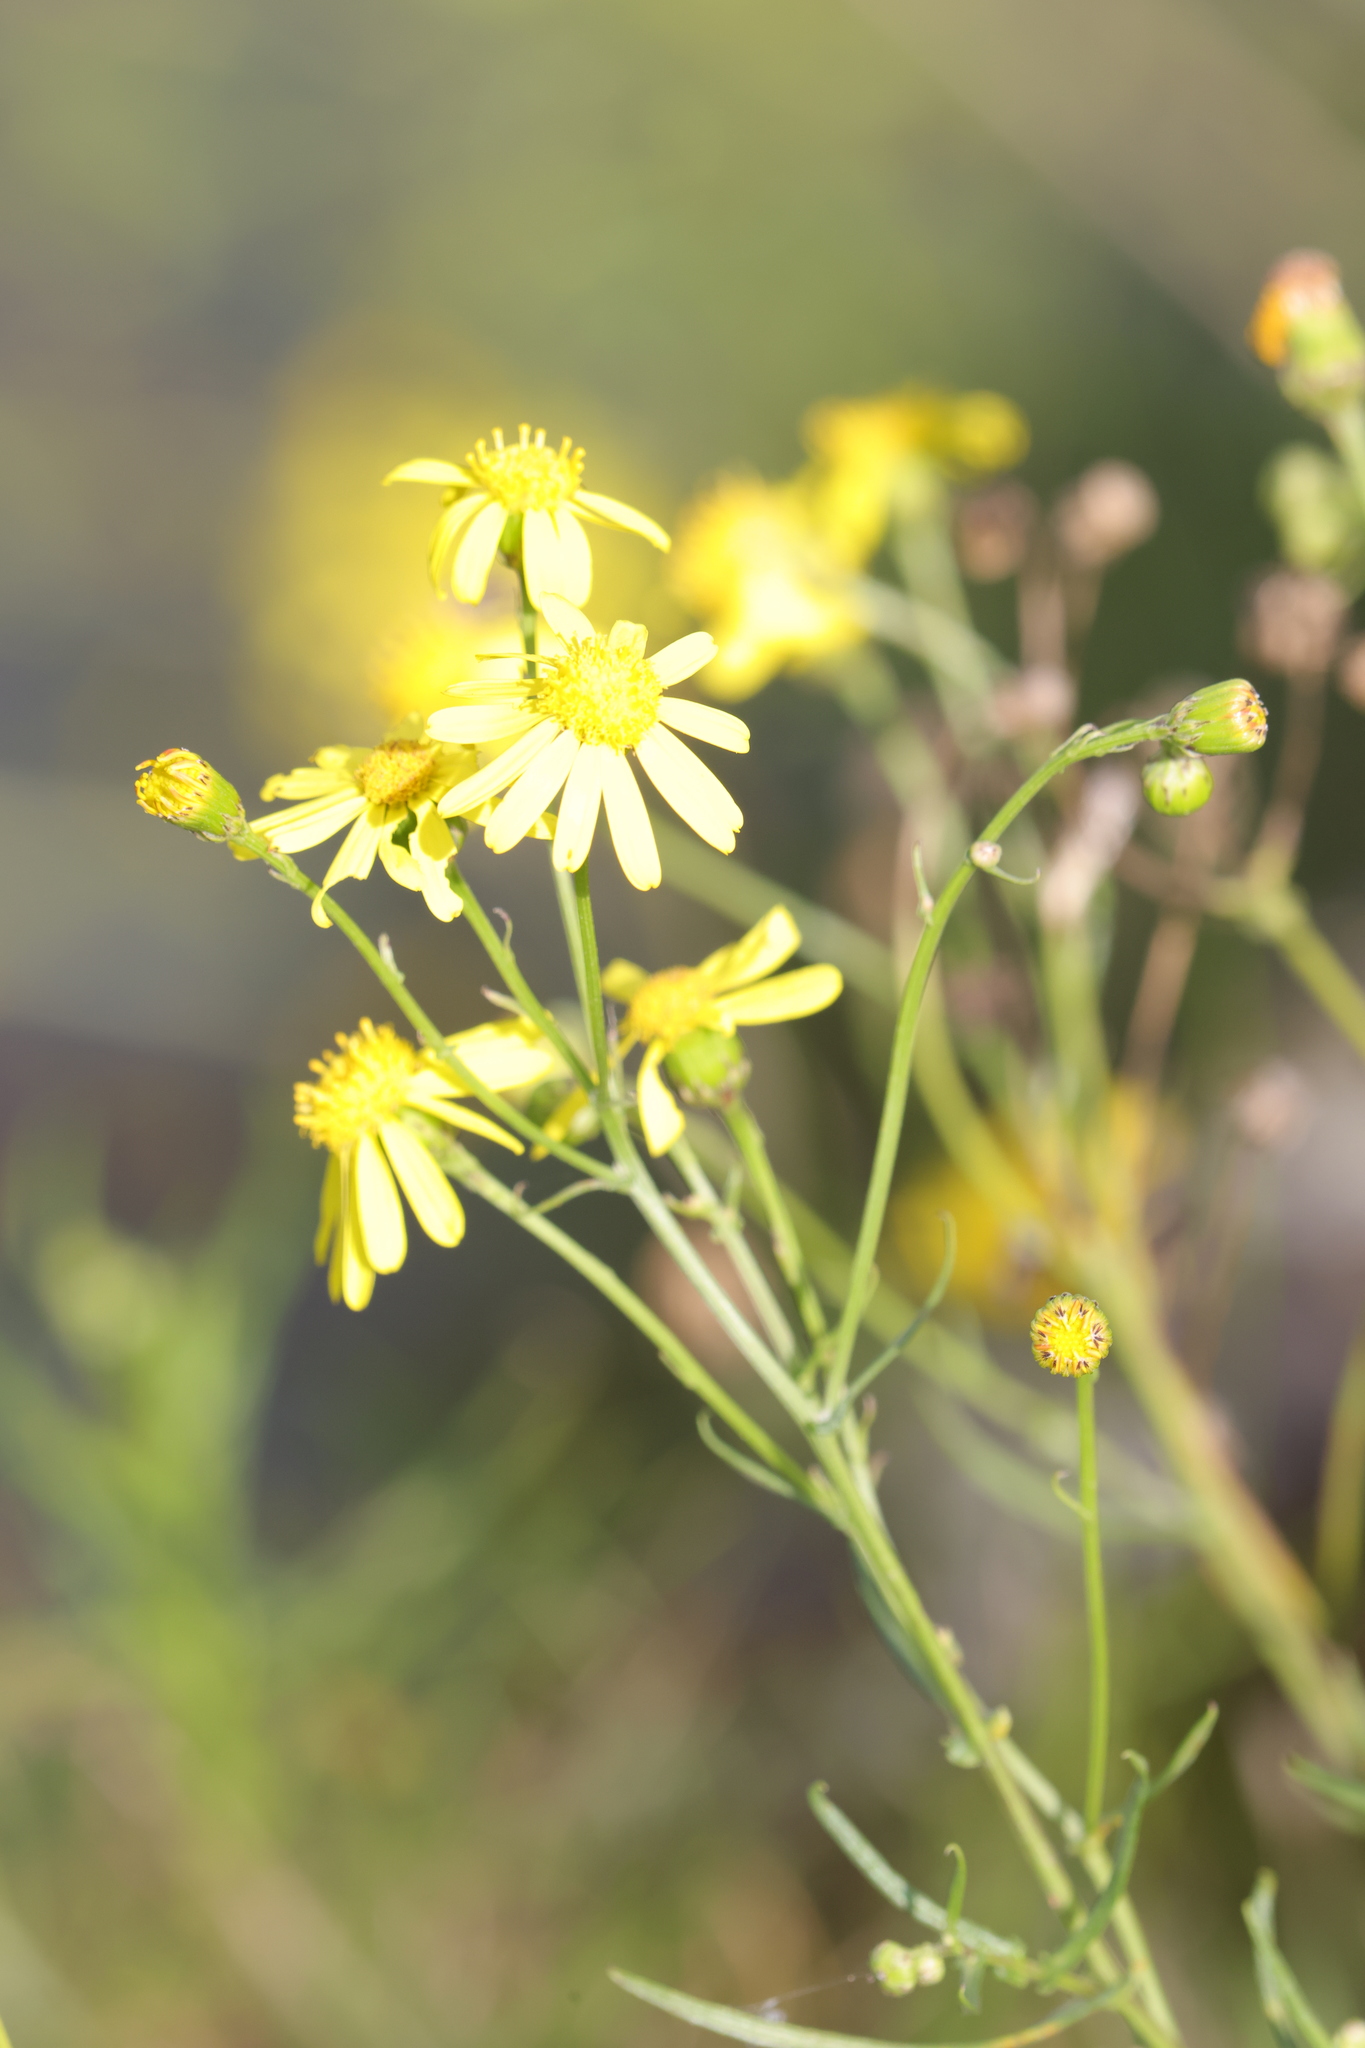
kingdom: Plantae
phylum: Tracheophyta
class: Magnoliopsida
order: Asterales
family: Asteraceae
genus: Senecio
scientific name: Senecio inaequidens
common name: Narrow-leaved ragwort
